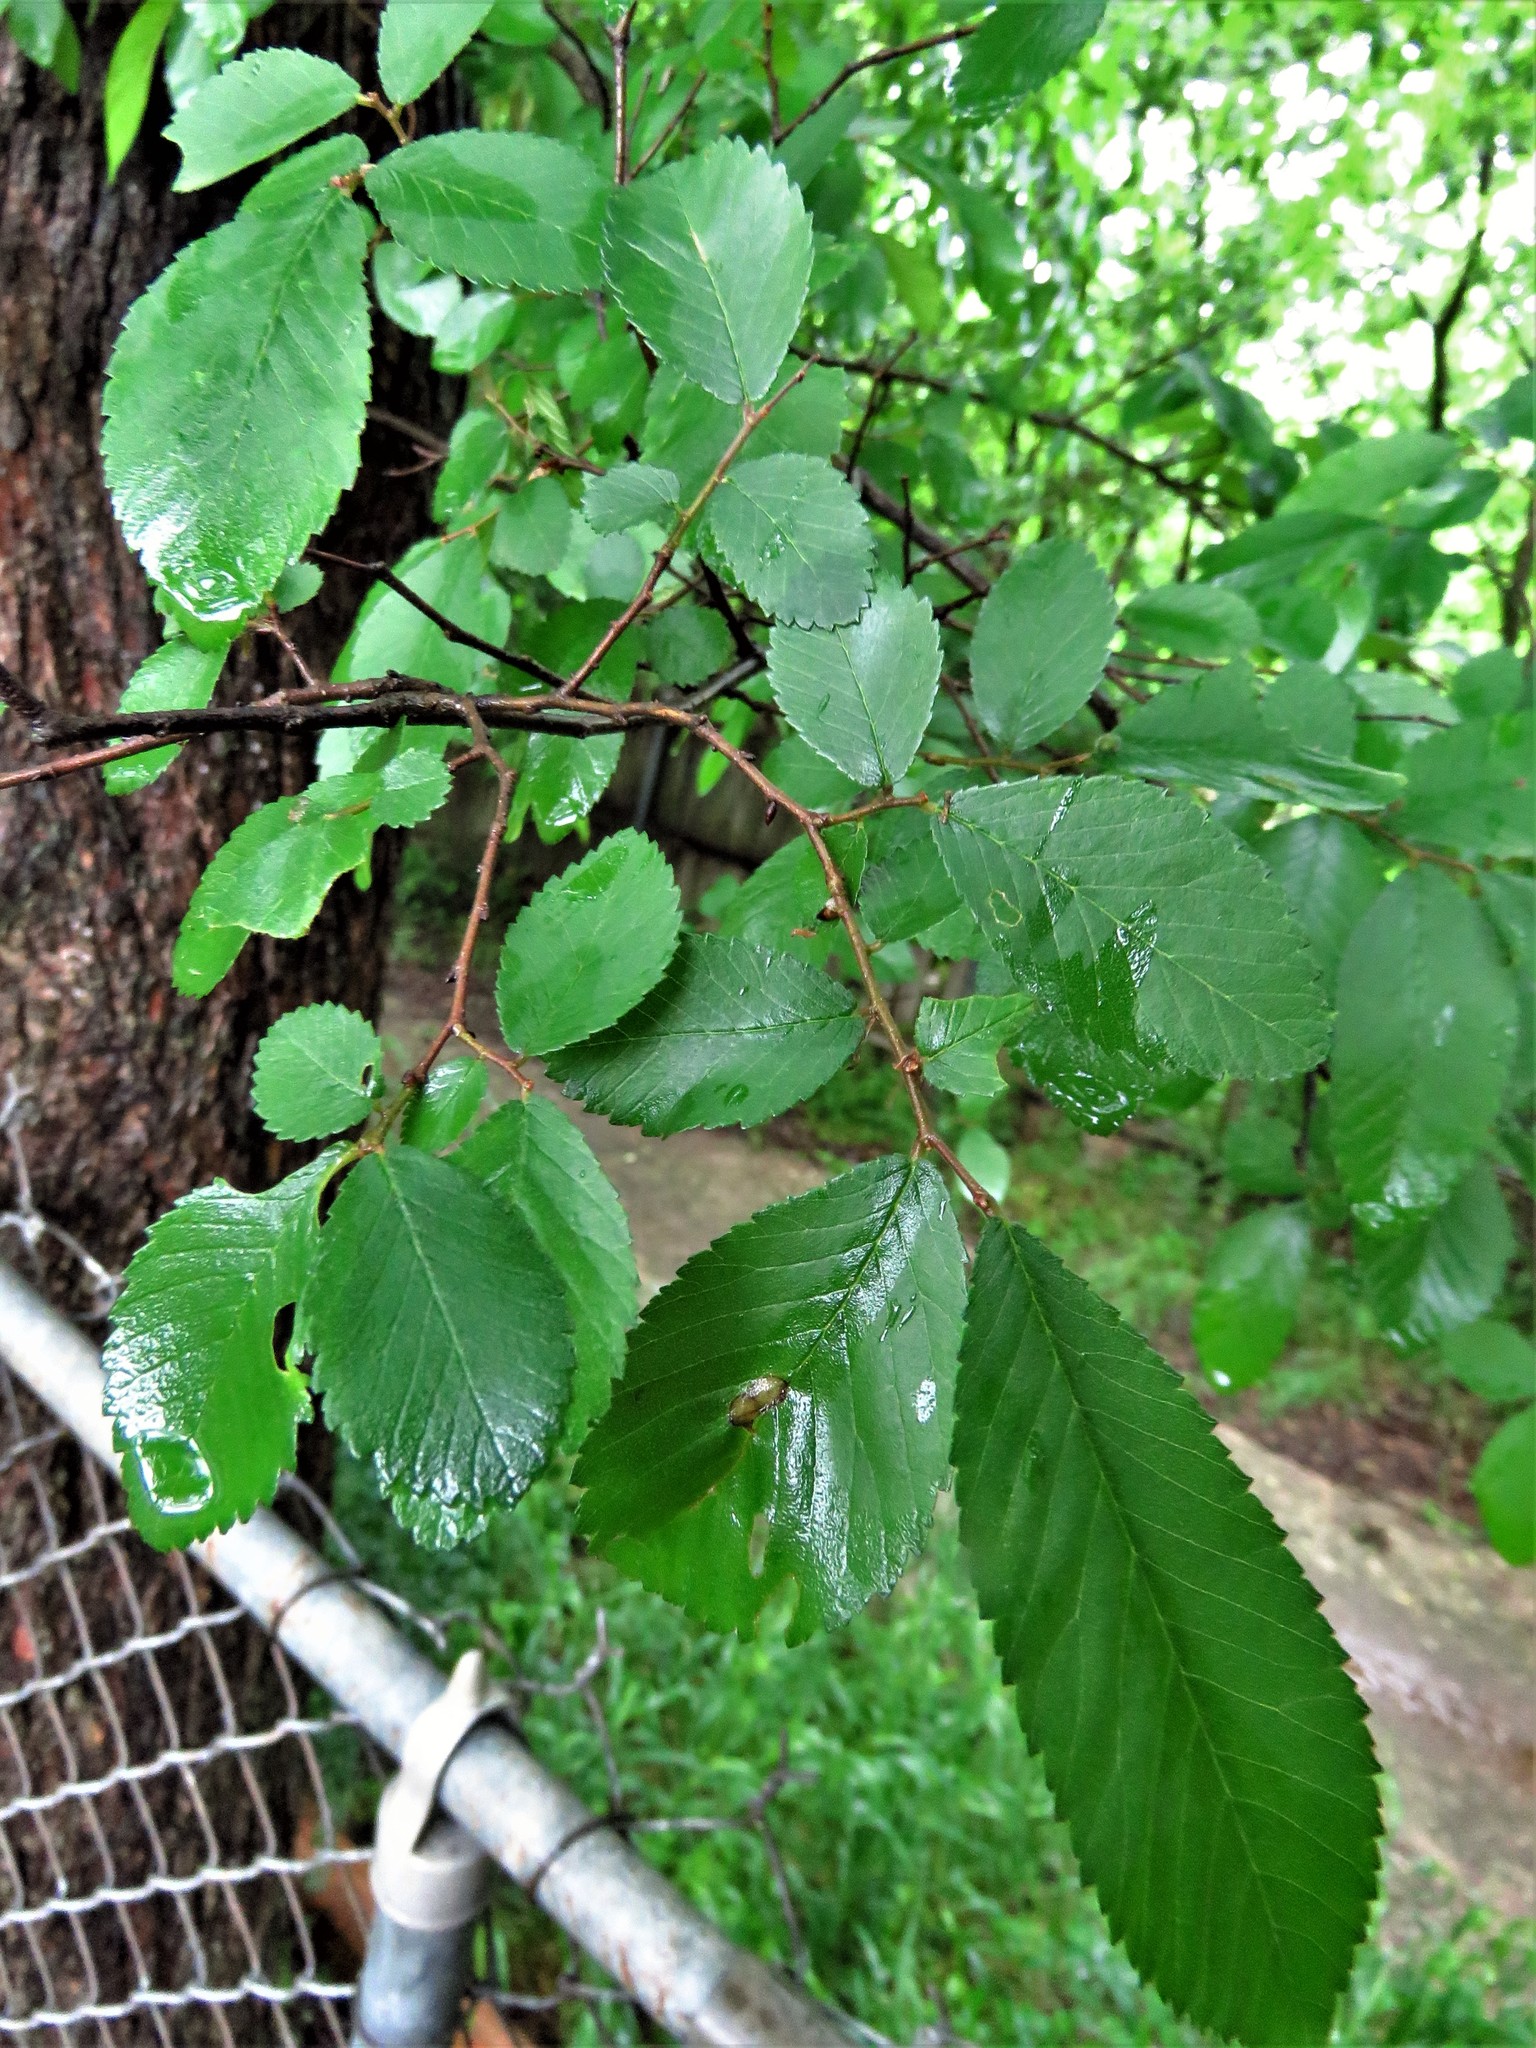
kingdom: Plantae
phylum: Tracheophyta
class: Magnoliopsida
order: Rosales
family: Ulmaceae
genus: Ulmus
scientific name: Ulmus crassifolia
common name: Basket elm
